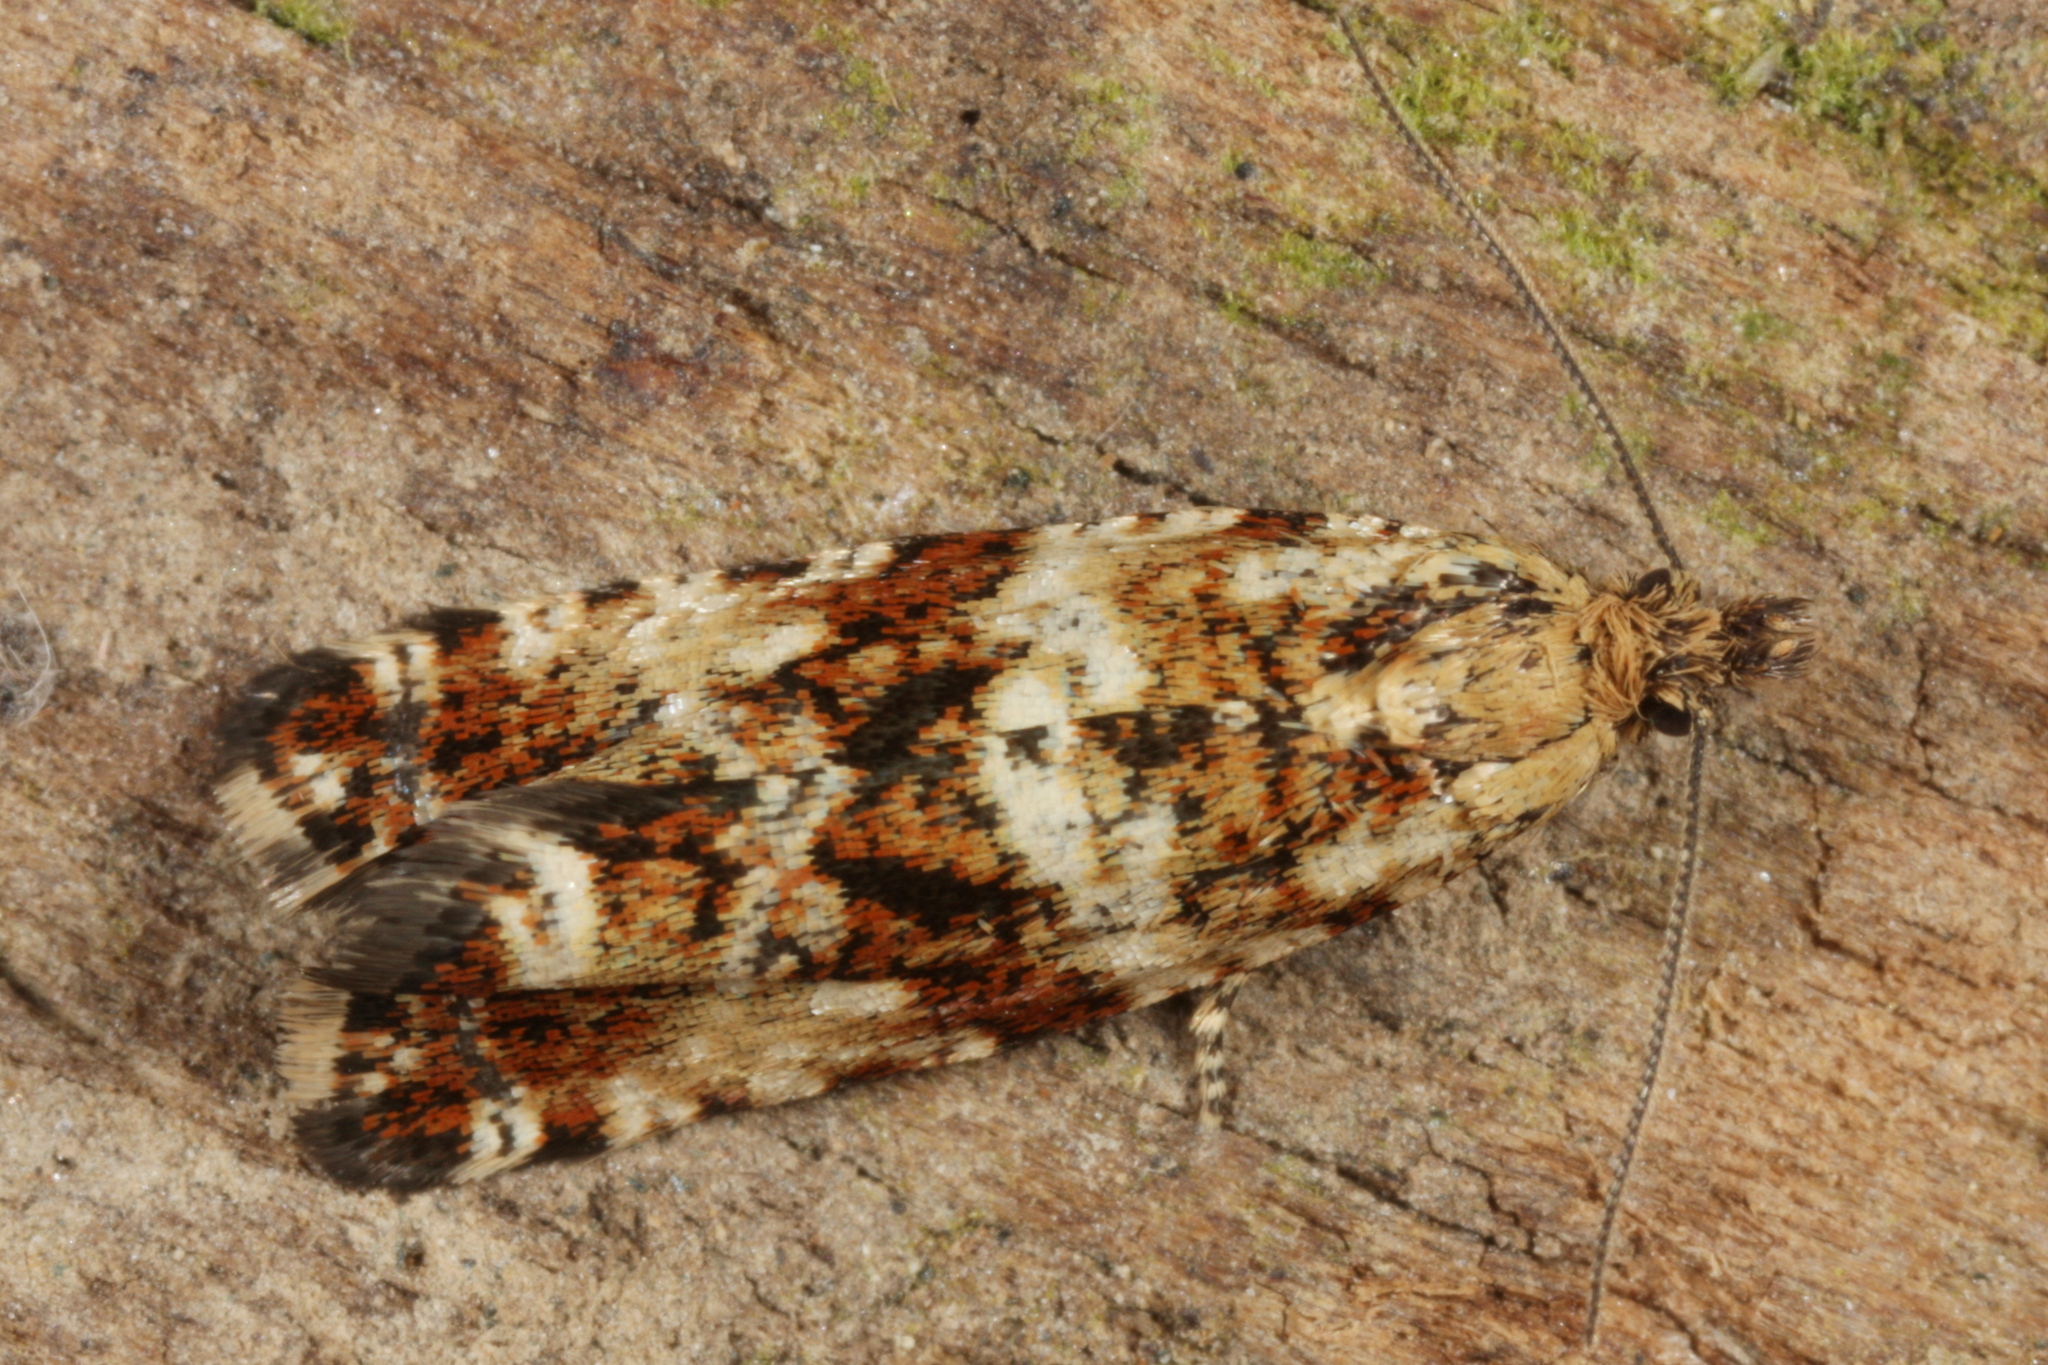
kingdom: Animalia
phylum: Arthropoda
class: Insecta
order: Lepidoptera
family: Tortricidae
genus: Olethreutes
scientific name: Olethreutes palustrana
